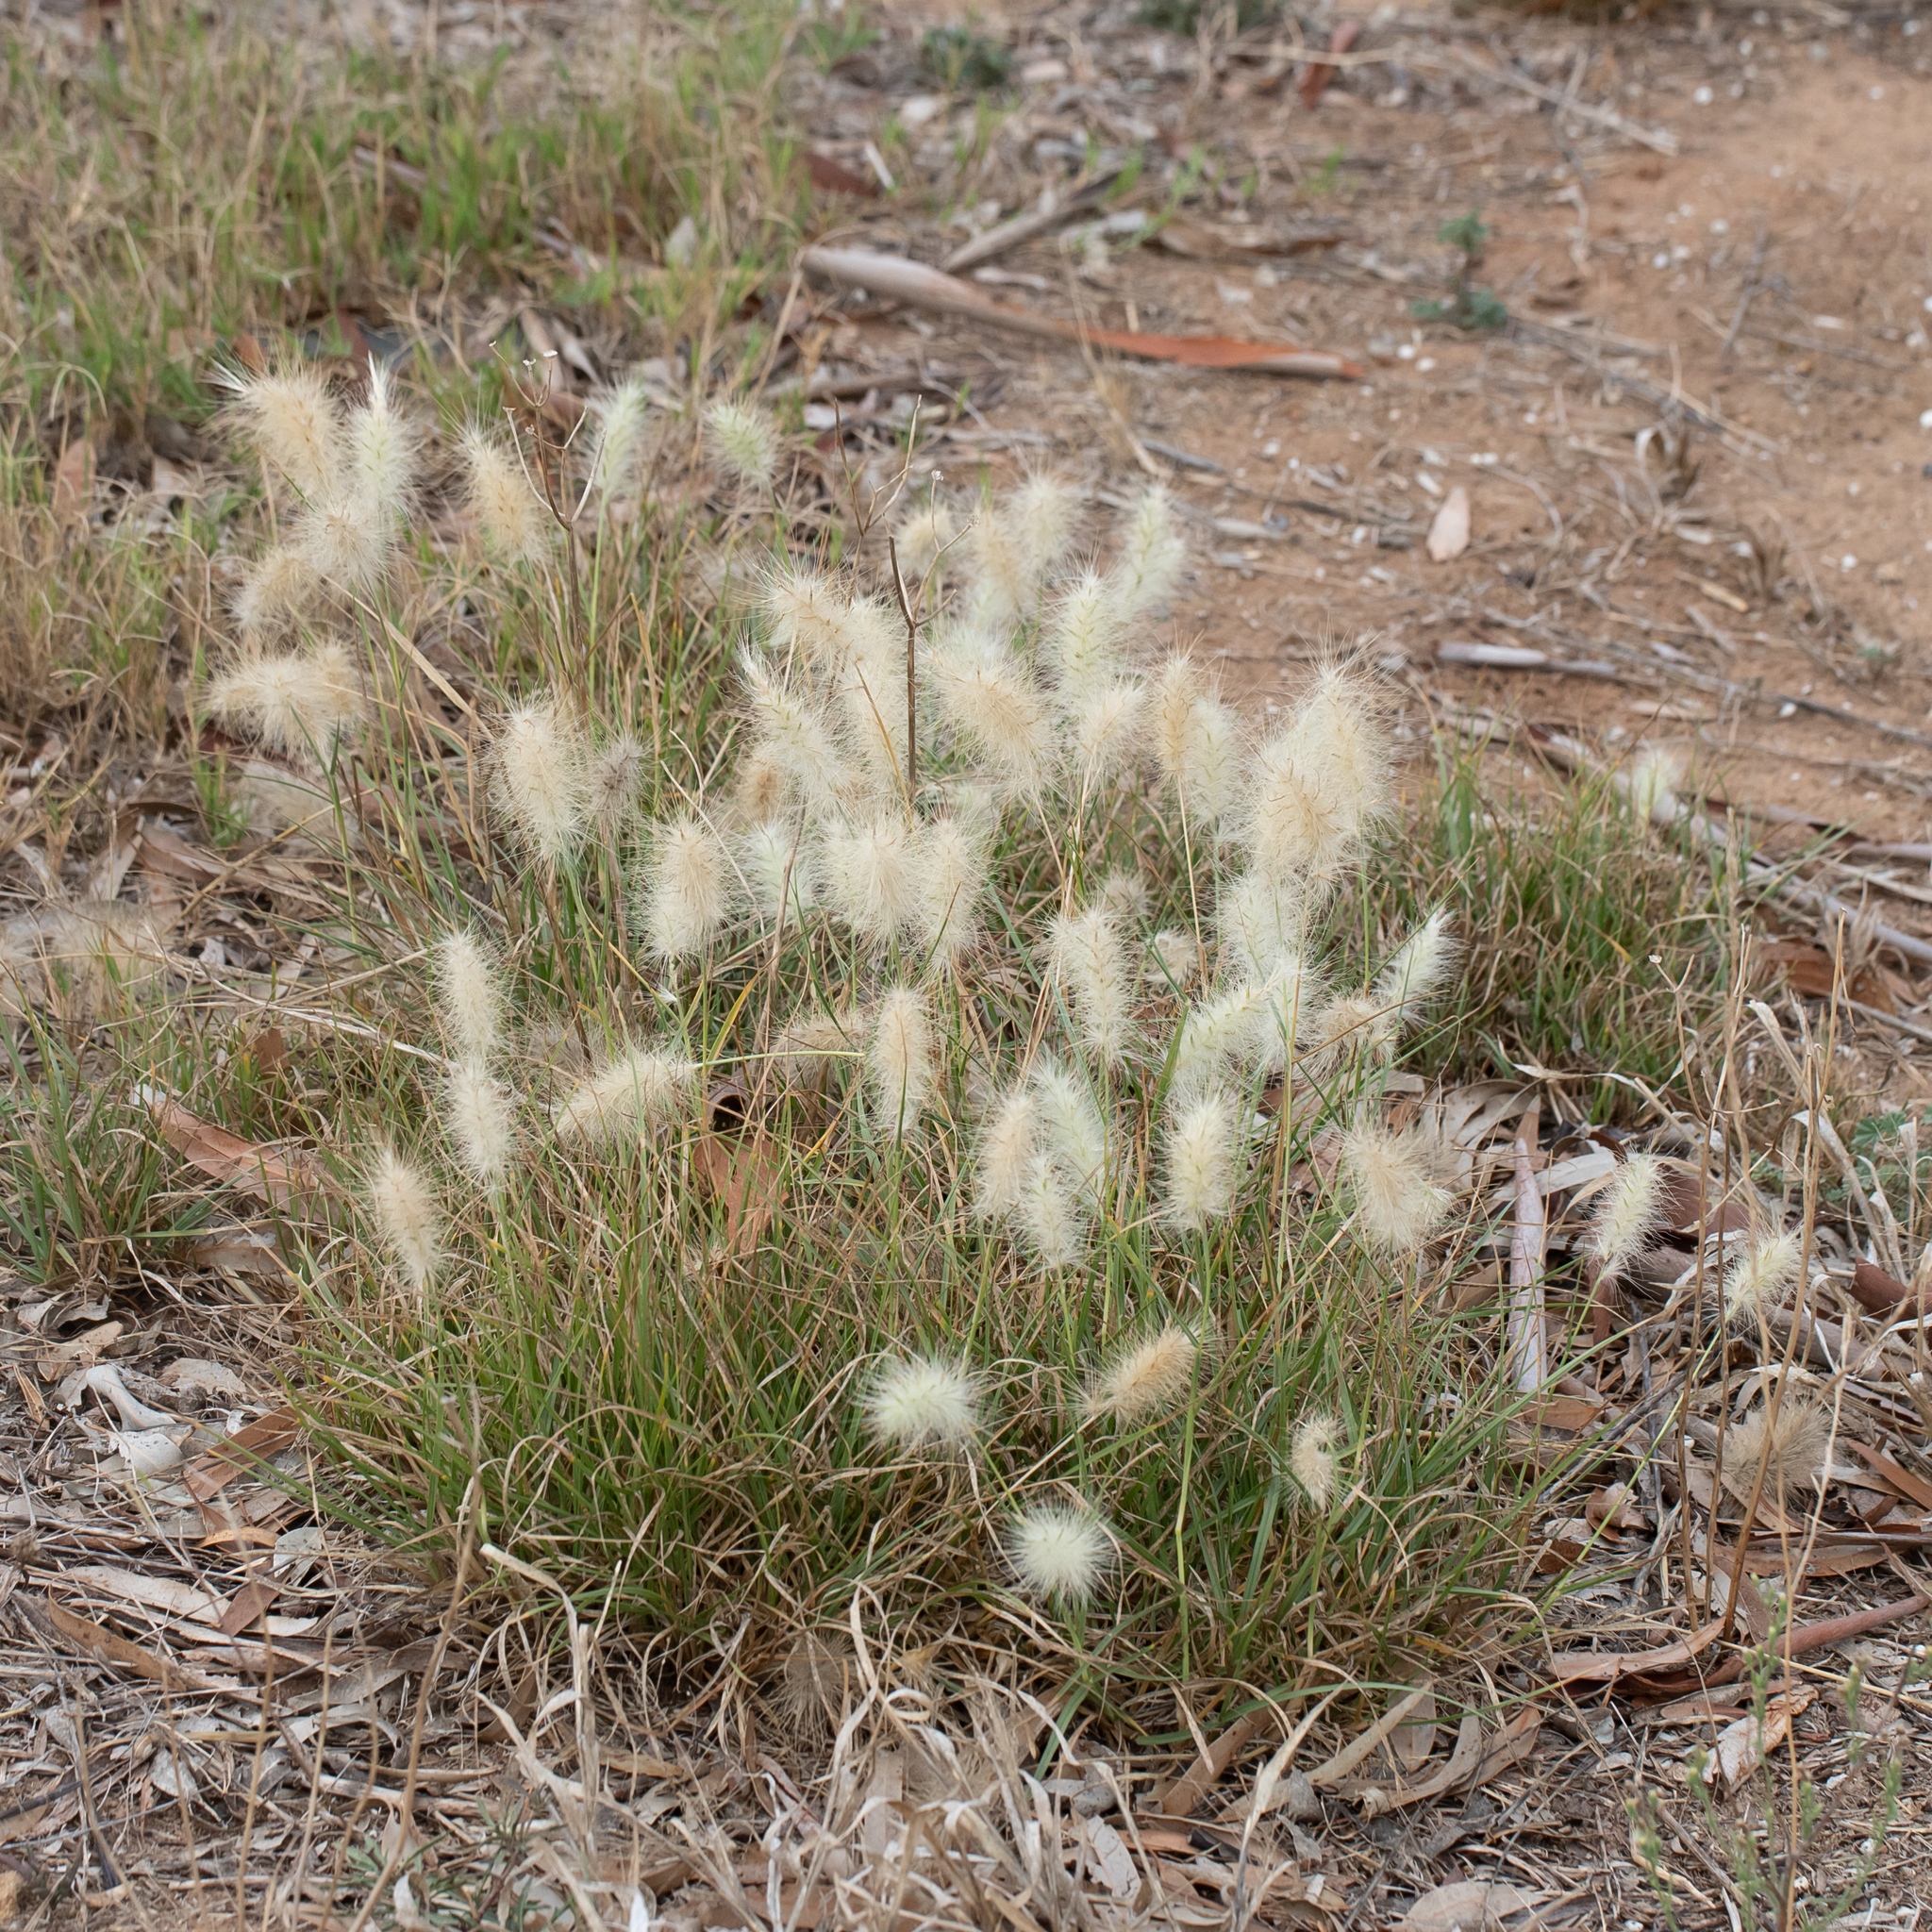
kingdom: Plantae
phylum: Tracheophyta
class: Liliopsida
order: Poales
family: Poaceae
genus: Cenchrus
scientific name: Cenchrus longisetus
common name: Feathertop
